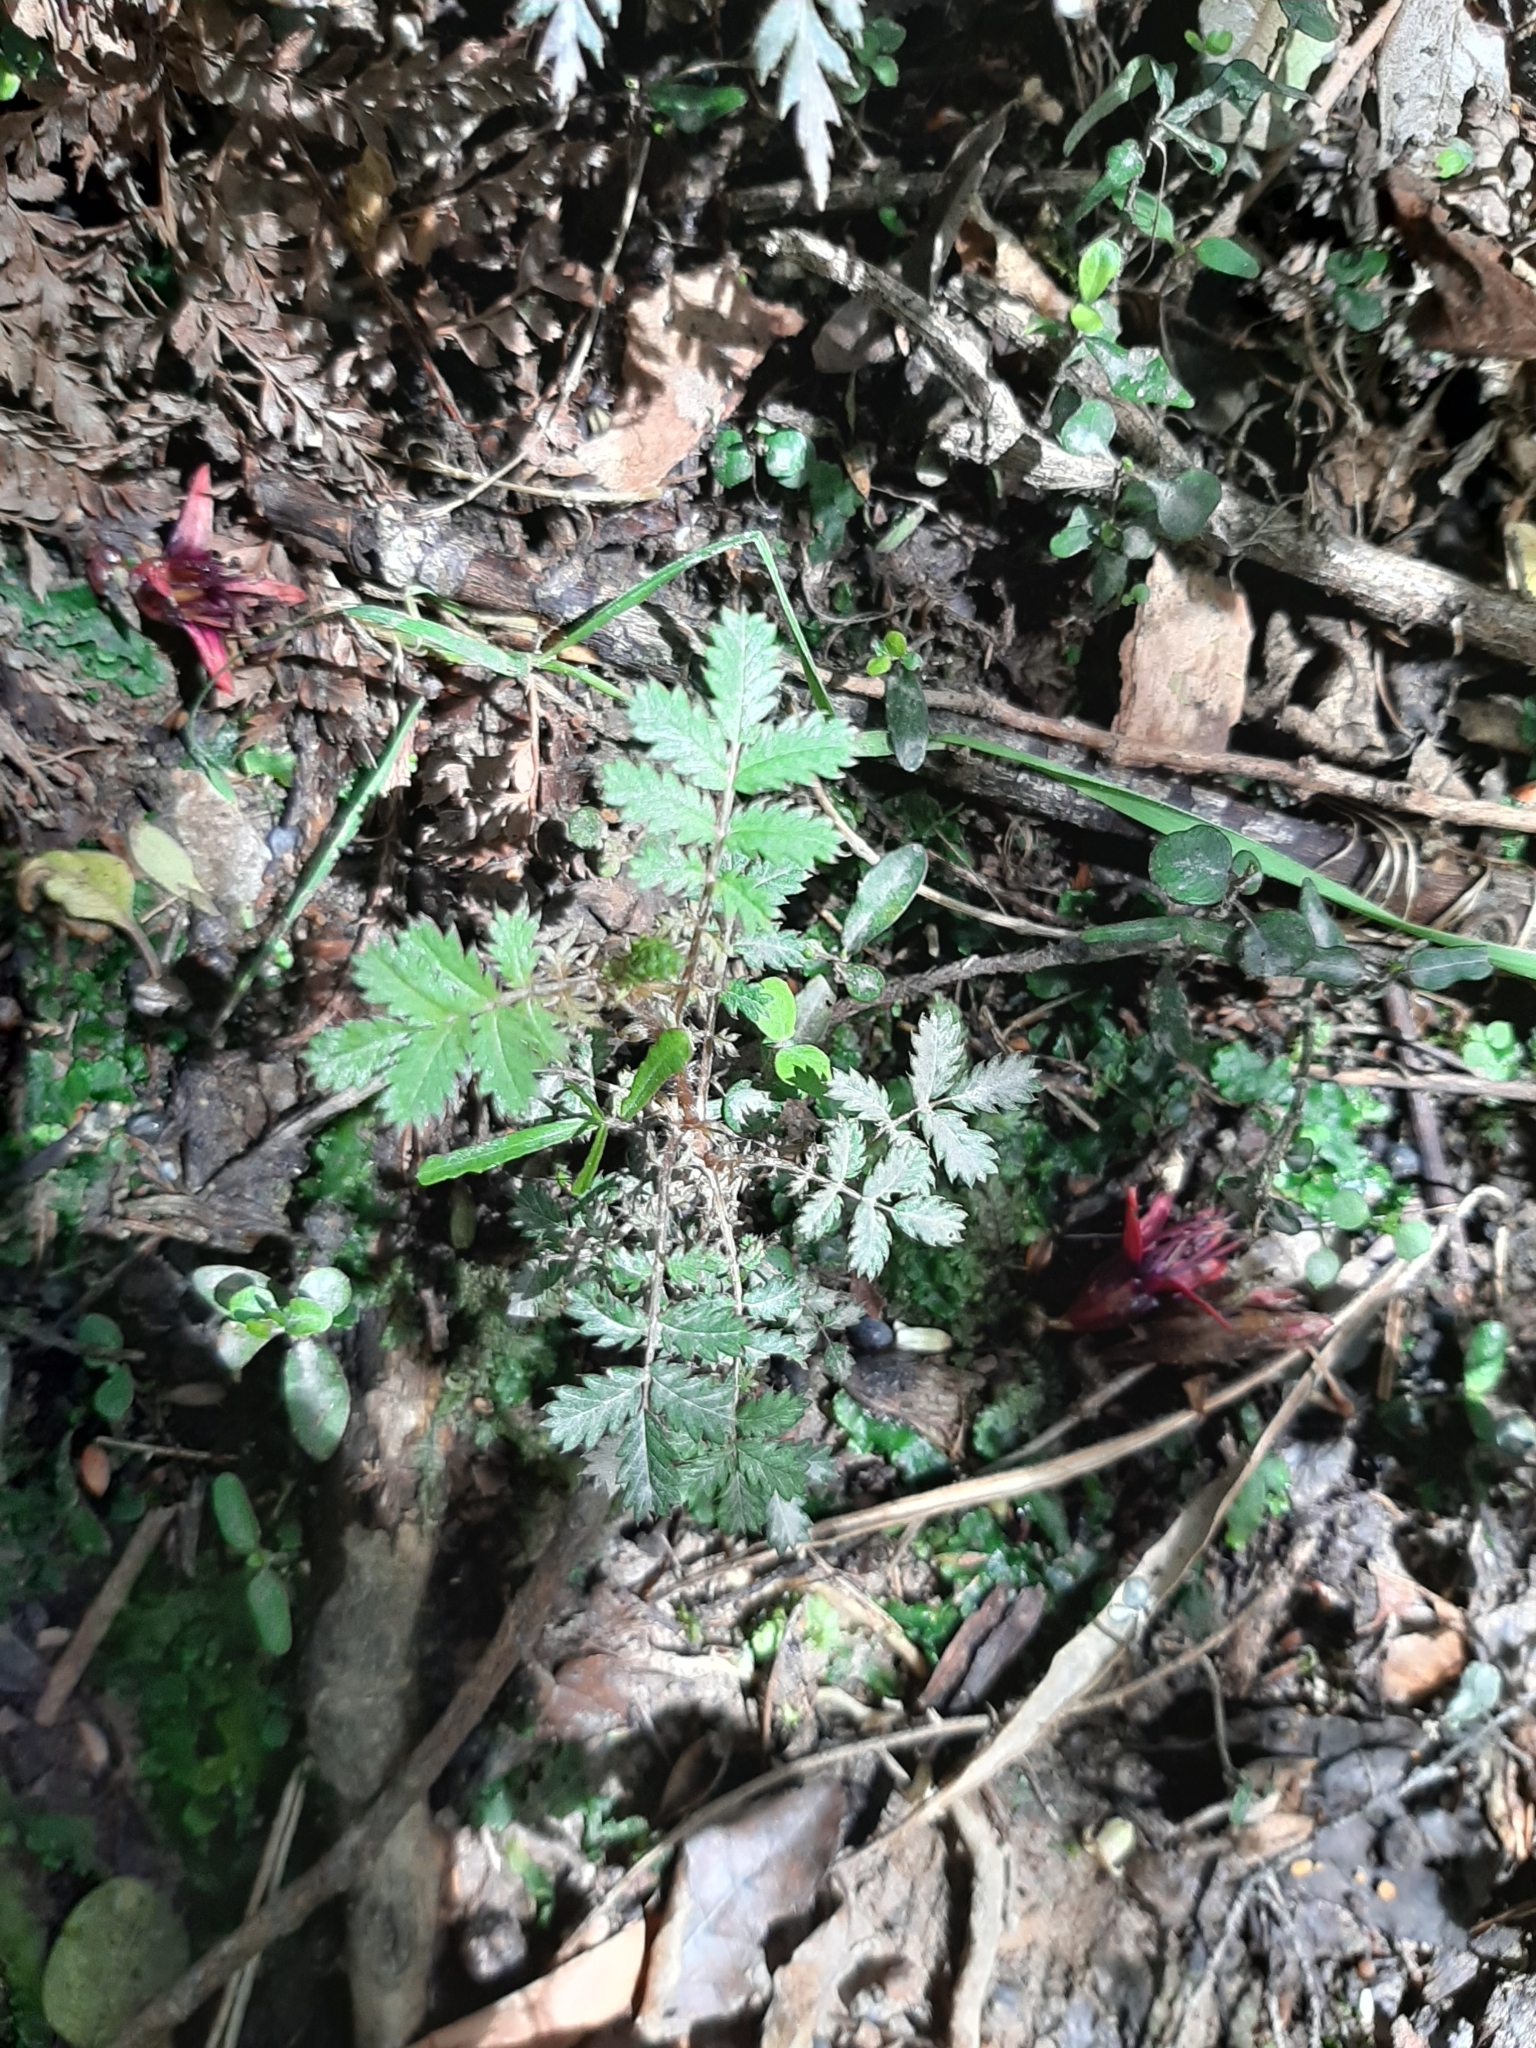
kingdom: Plantae
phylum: Tracheophyta
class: Magnoliopsida
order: Rosales
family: Rosaceae
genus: Acaena
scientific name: Acaena anserinifolia
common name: Bronze pirri-pirri-bur
